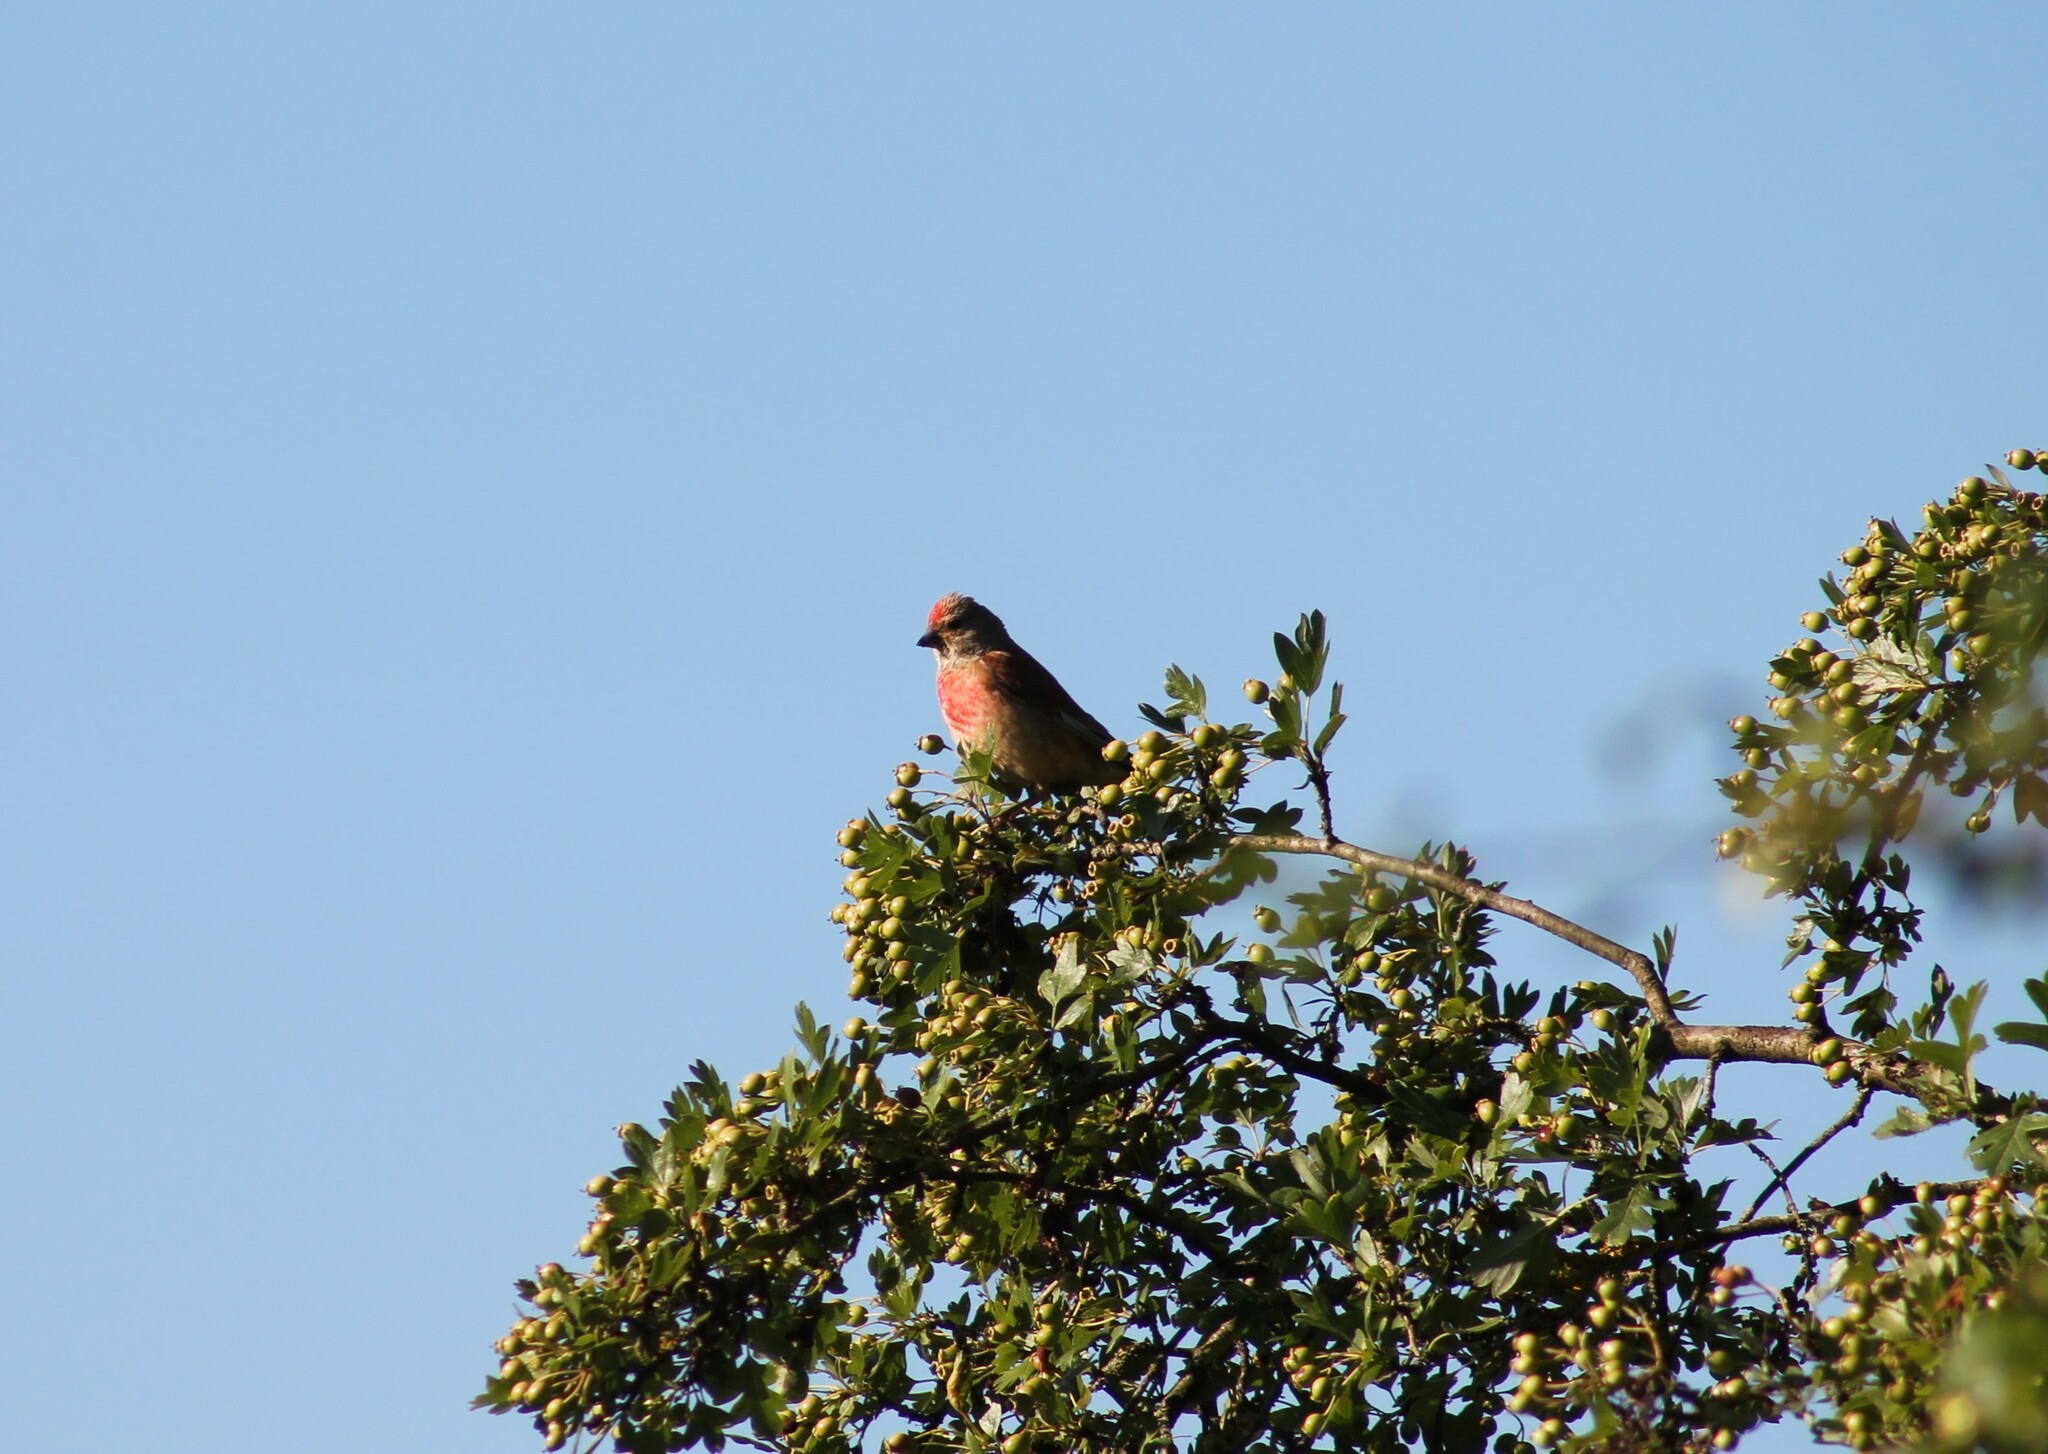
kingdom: Animalia
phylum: Chordata
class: Aves
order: Passeriformes
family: Fringillidae
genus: Linaria
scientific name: Linaria cannabina
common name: Common linnet
